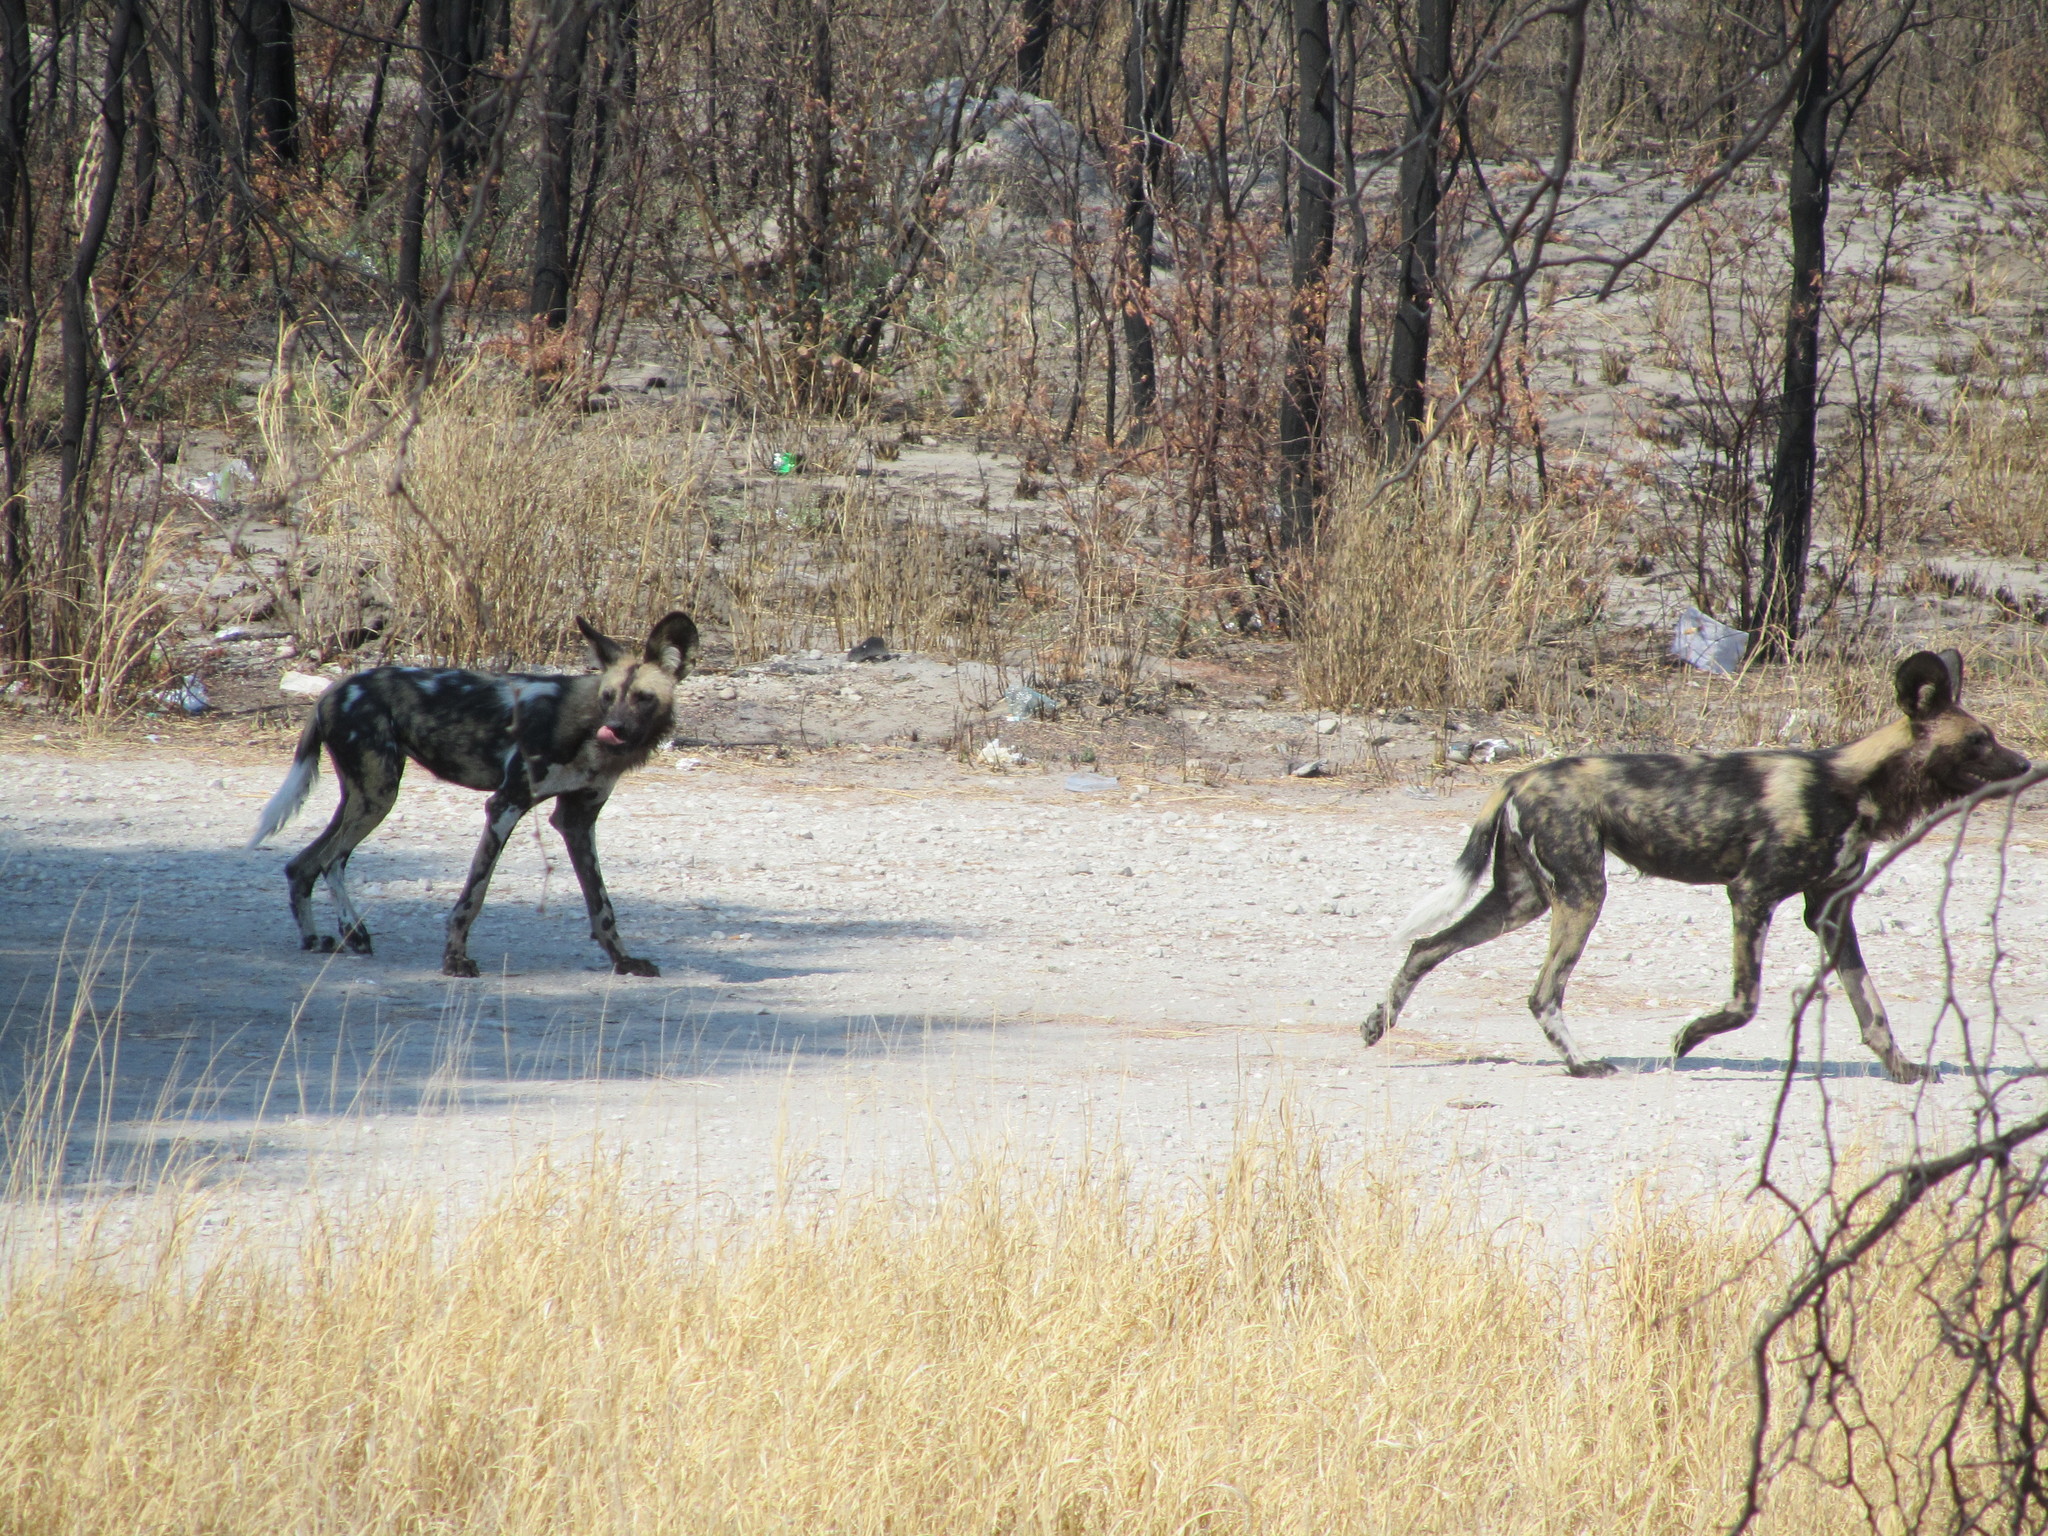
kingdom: Animalia
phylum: Chordata
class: Mammalia
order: Carnivora
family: Canidae
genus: Lycaon
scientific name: Lycaon pictus
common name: African wild dog
